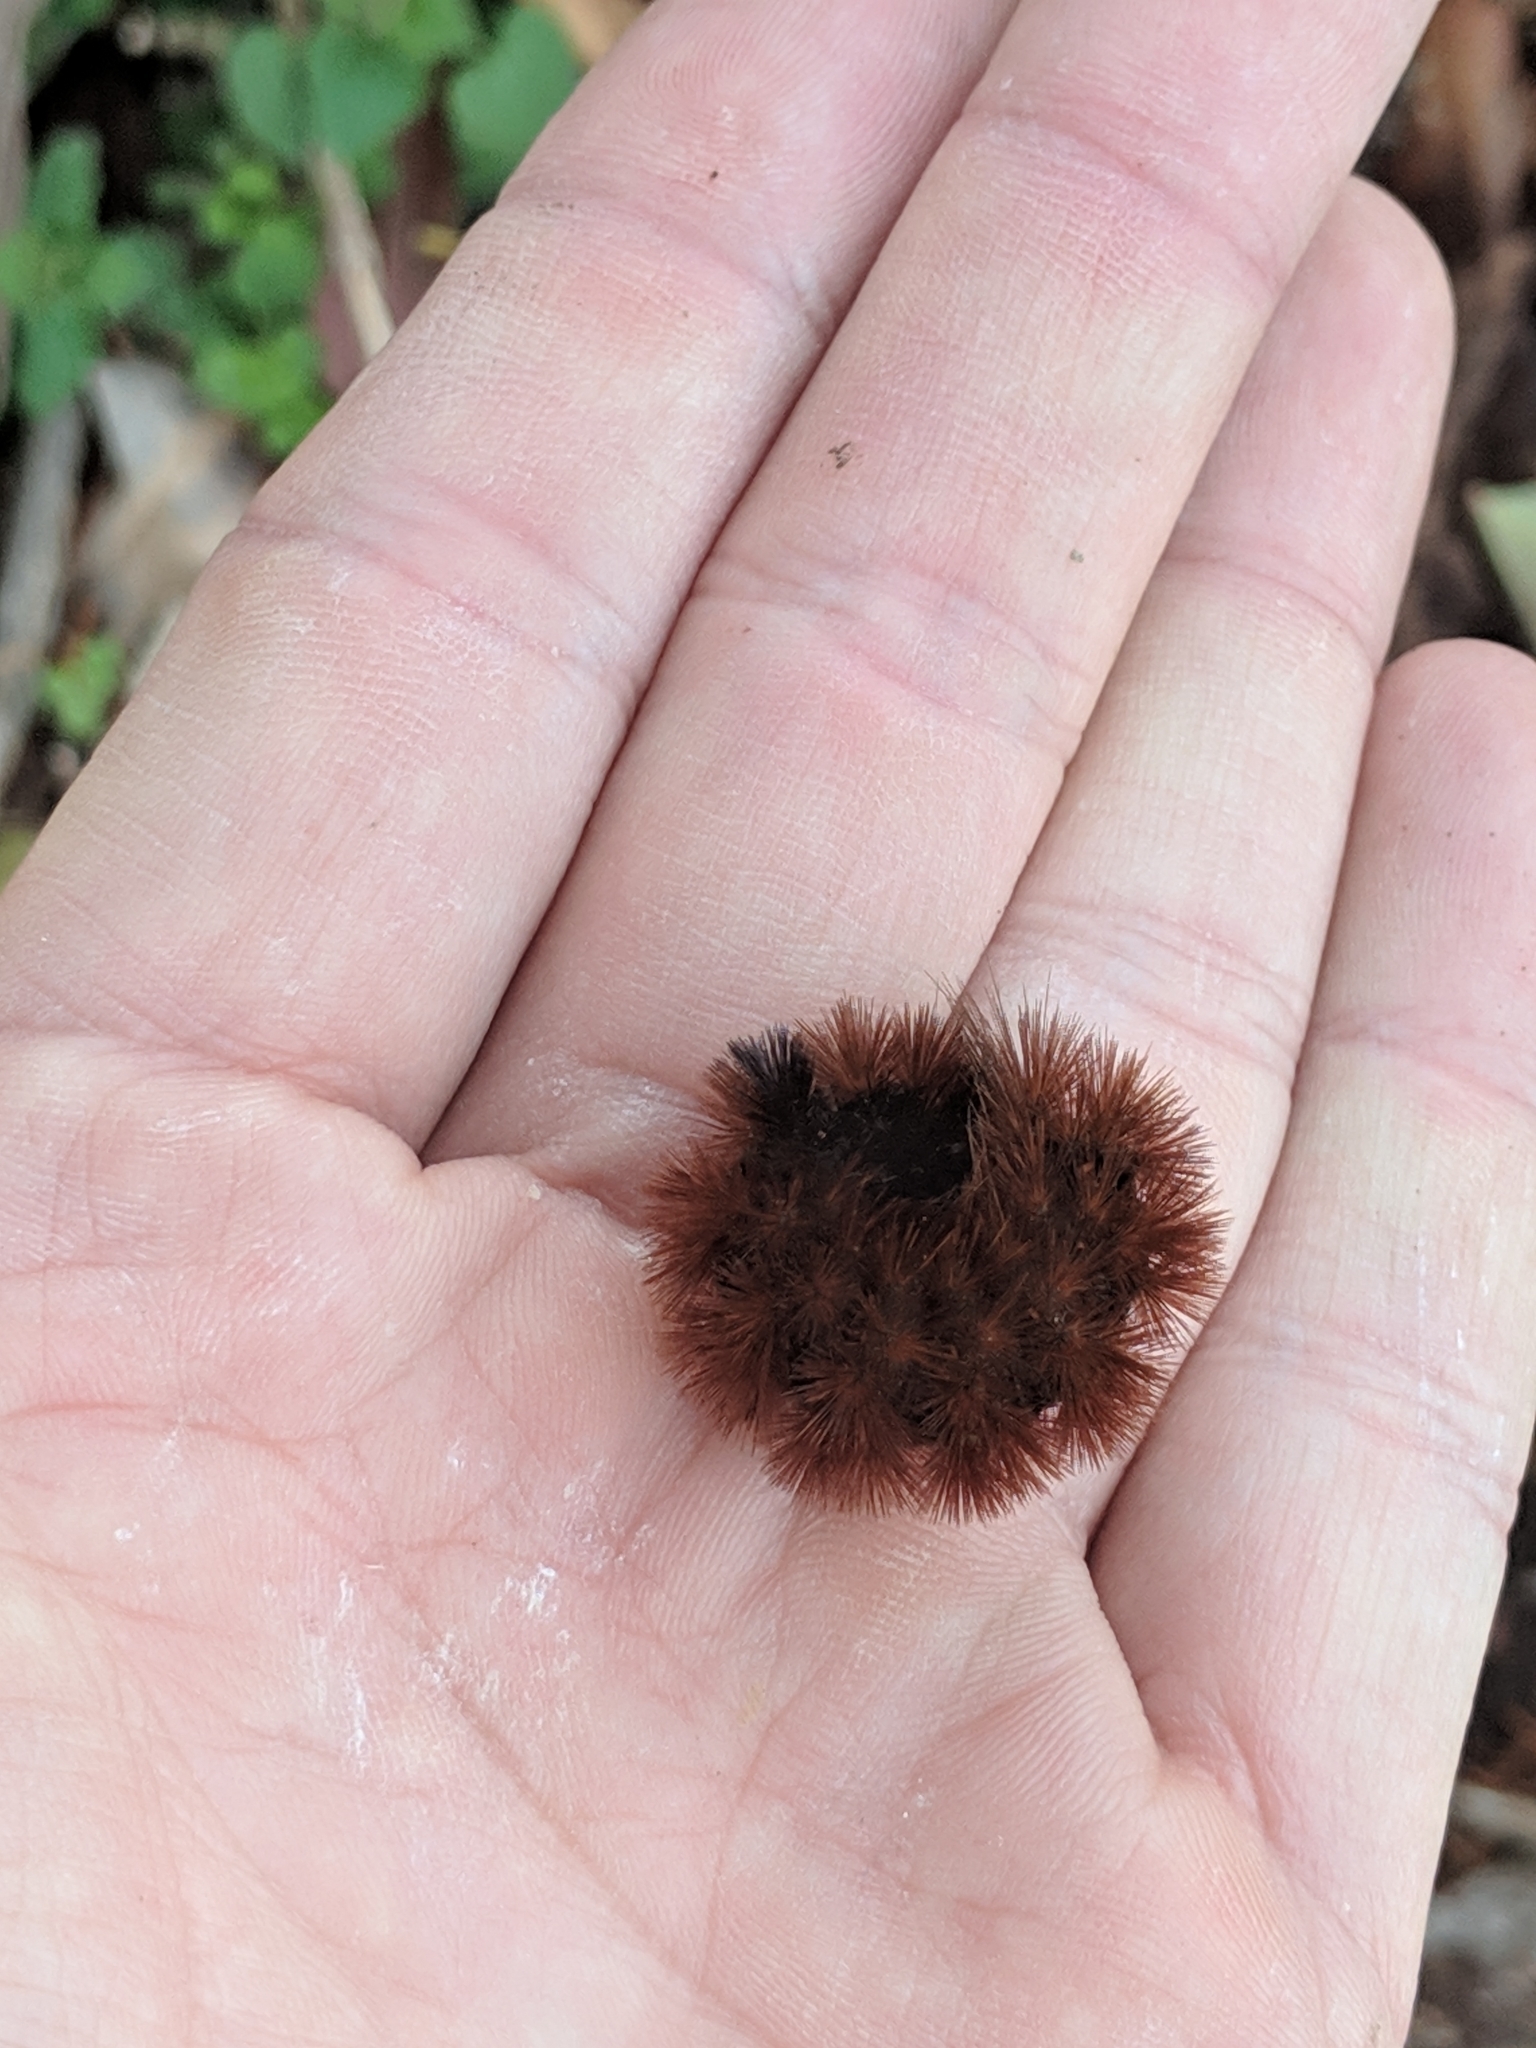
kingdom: Animalia
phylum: Arthropoda
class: Insecta
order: Lepidoptera
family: Erebidae
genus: Pyrrharctia
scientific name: Pyrrharctia isabella
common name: Isabella tiger moth
